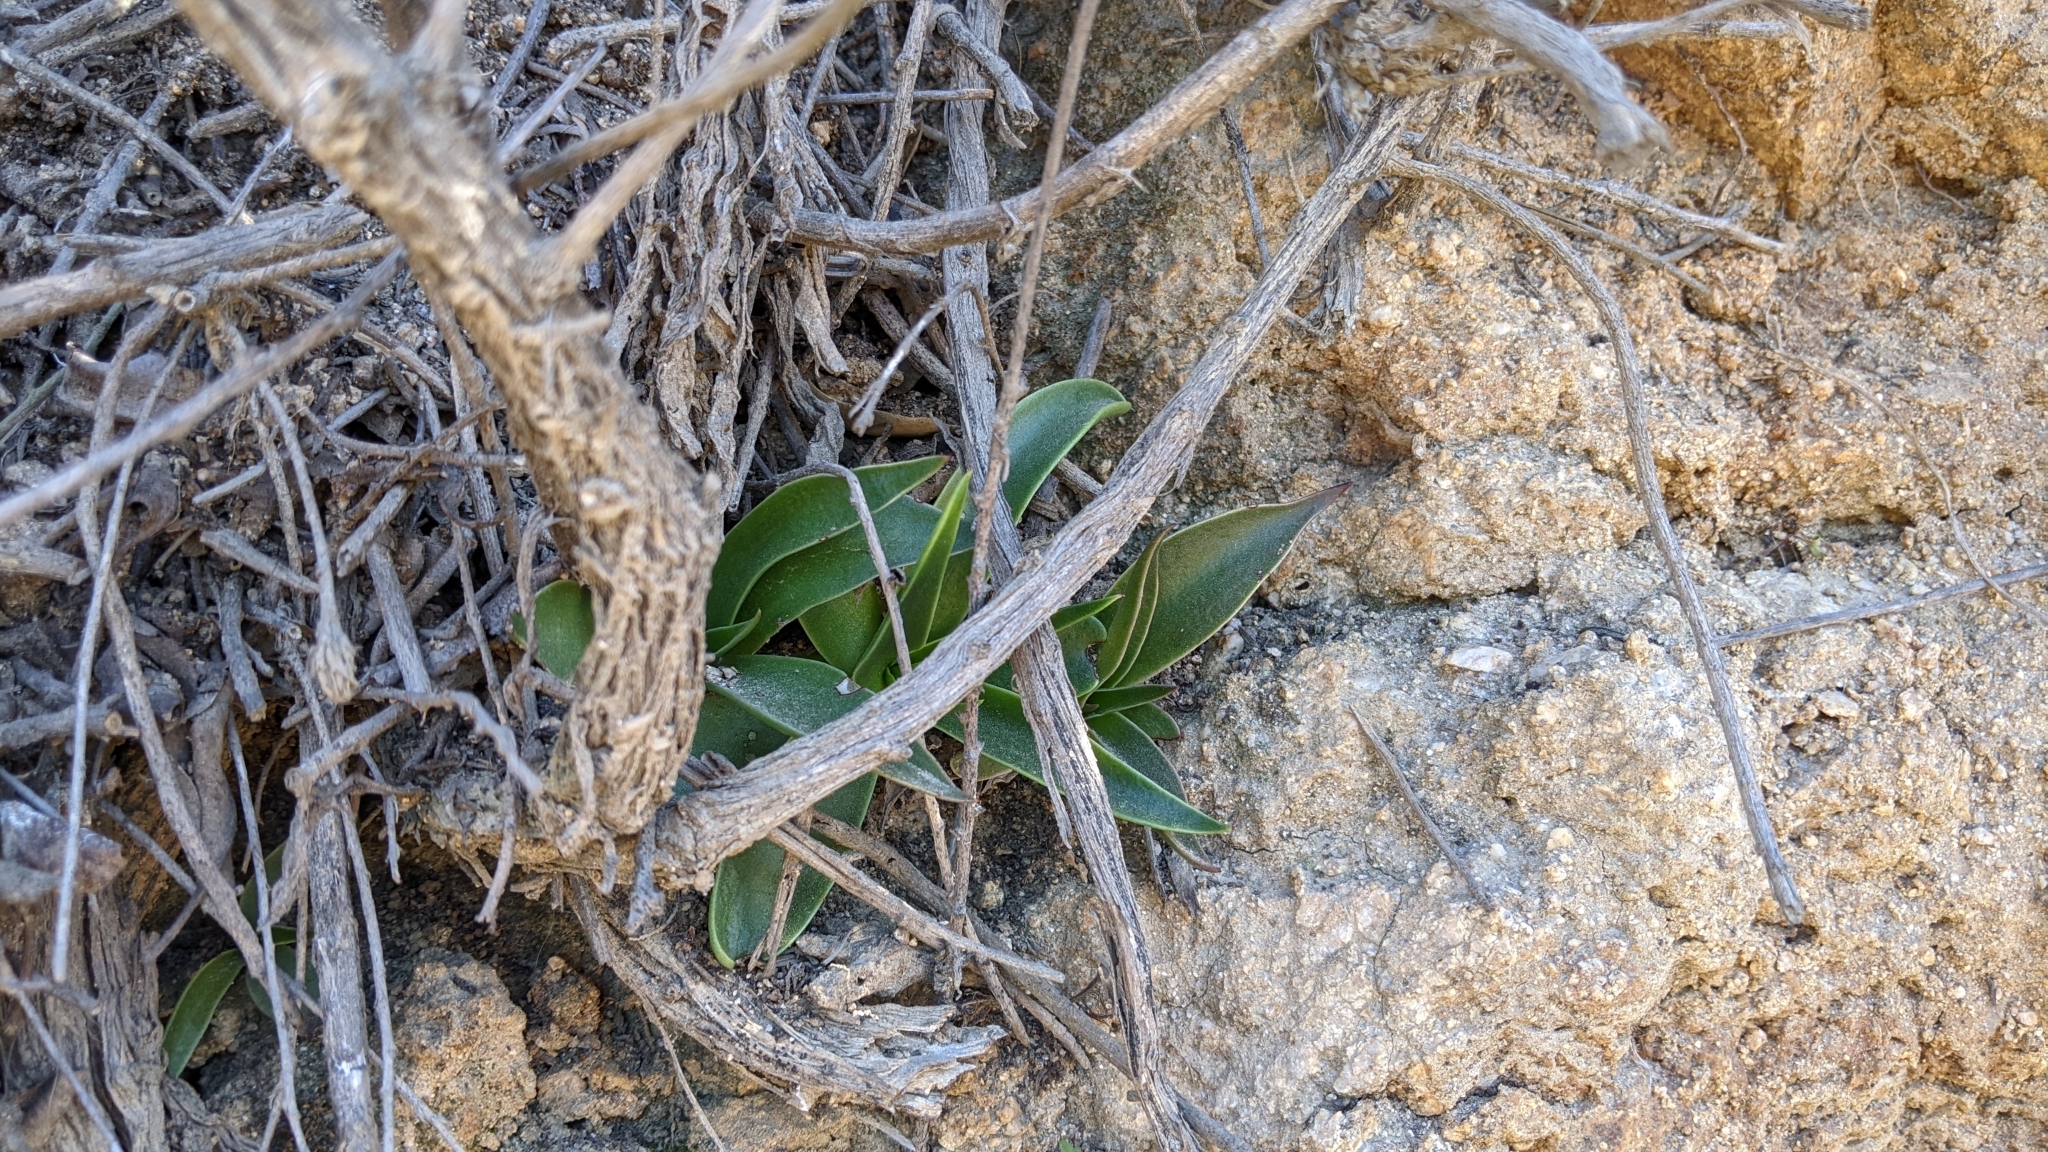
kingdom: Plantae
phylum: Tracheophyta
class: Magnoliopsida
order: Saxifragales
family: Crassulaceae
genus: Dudleya
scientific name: Dudleya lanceolata
